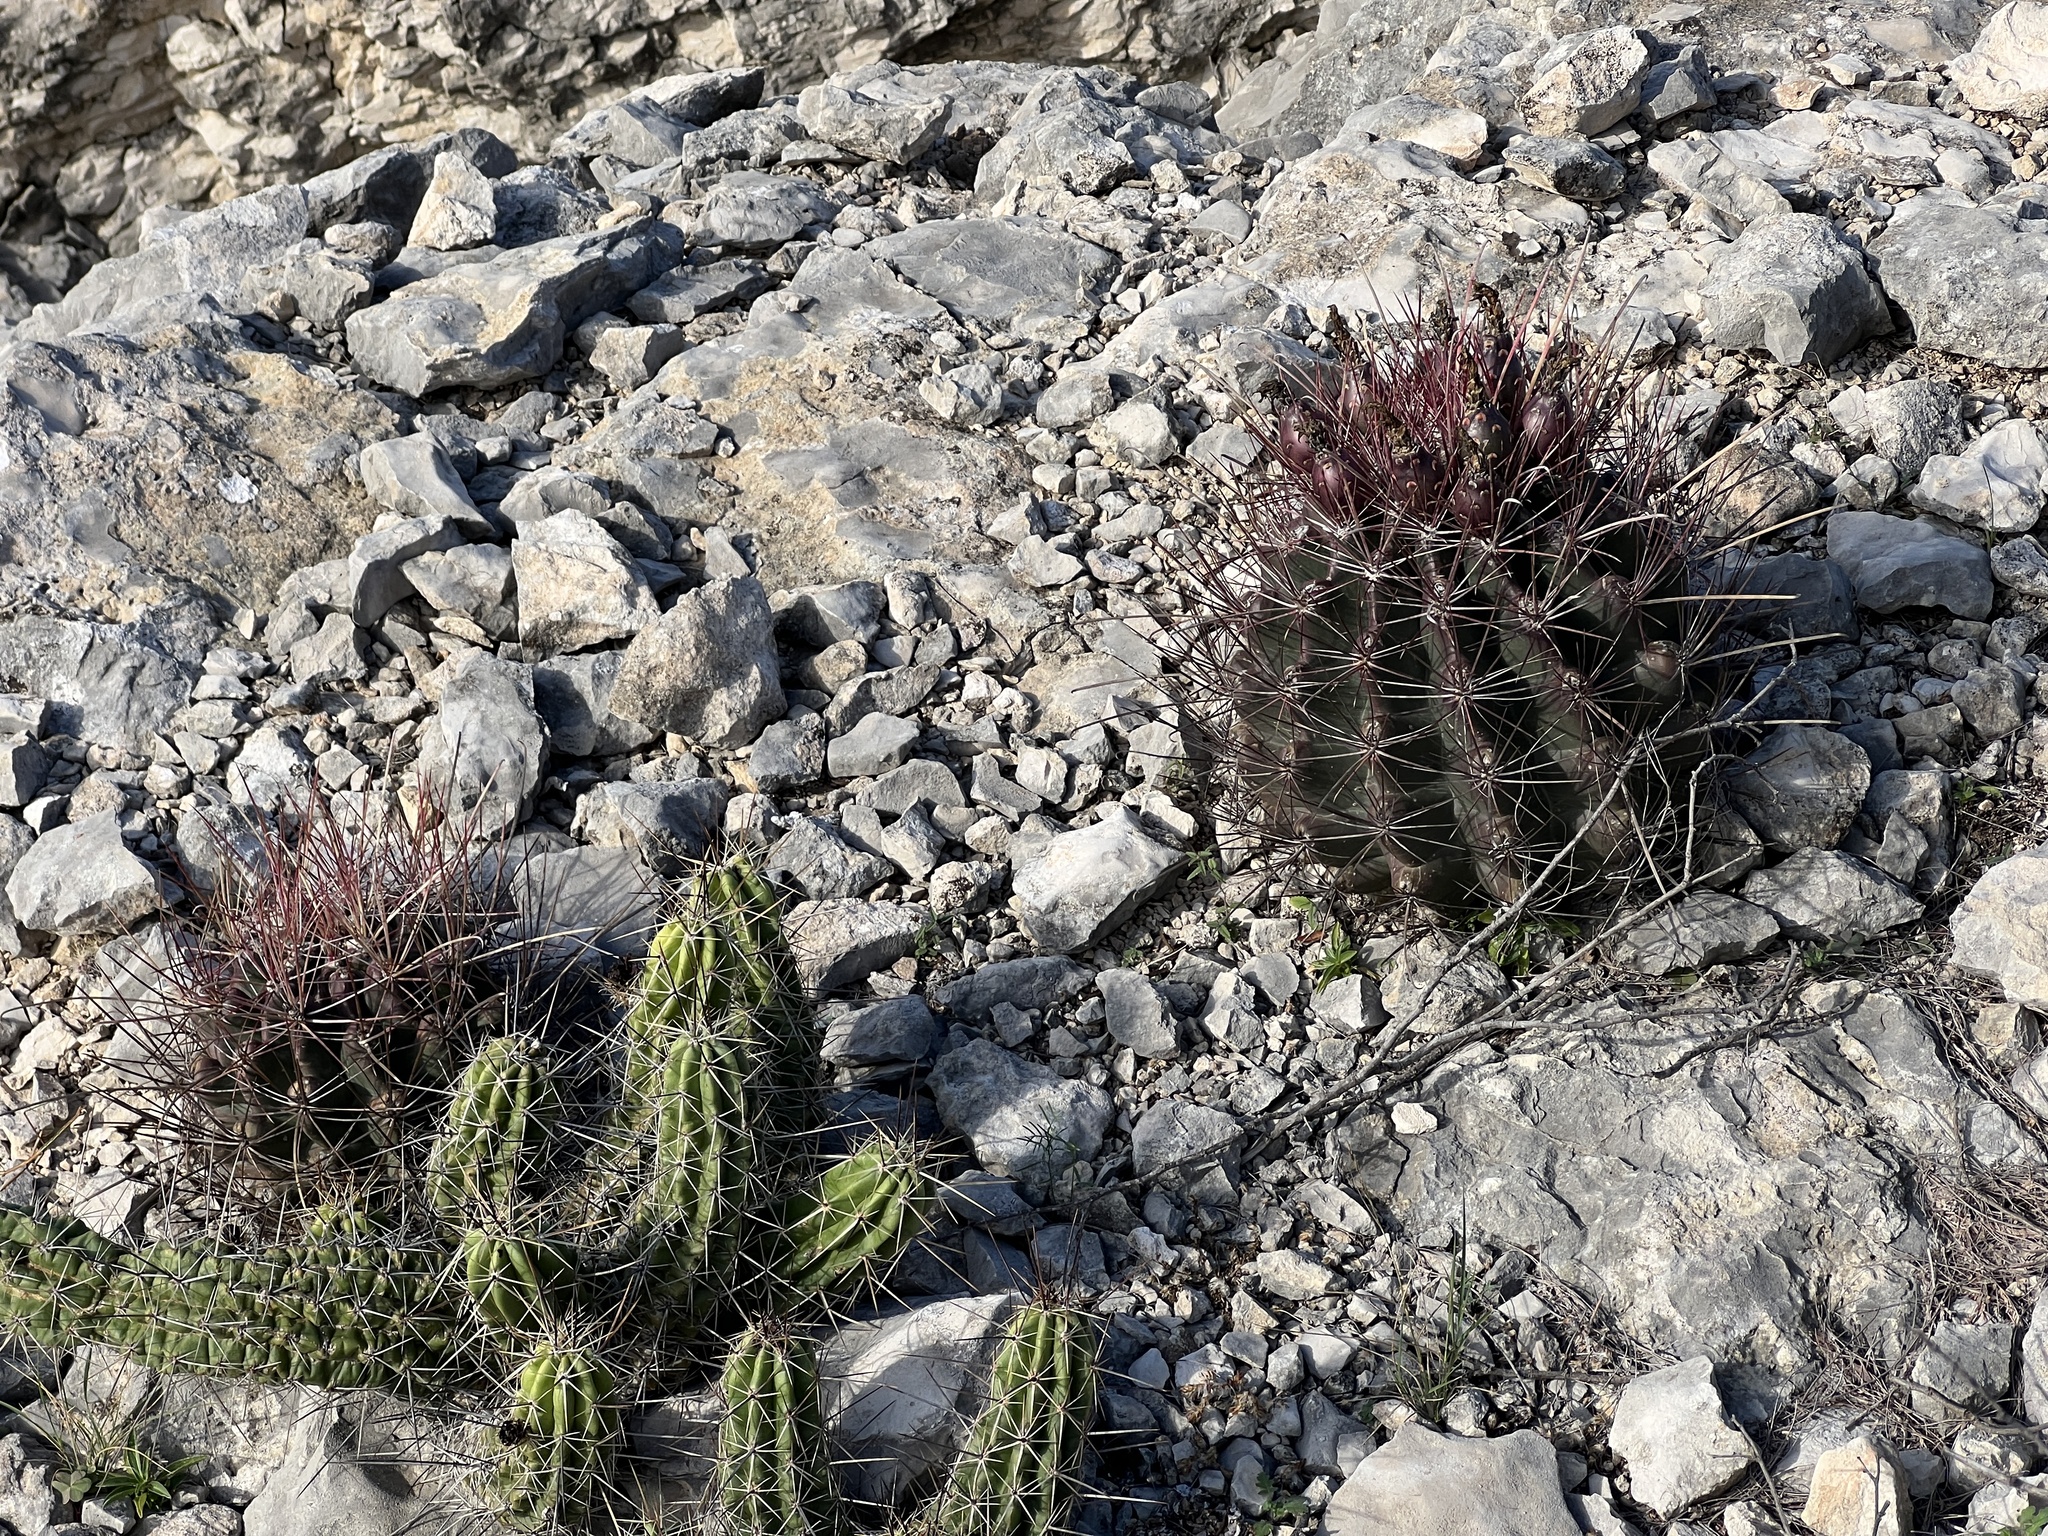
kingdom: Plantae
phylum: Tracheophyta
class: Magnoliopsida
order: Caryophyllales
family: Cactaceae
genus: Bisnaga
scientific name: Bisnaga hamatacantha
